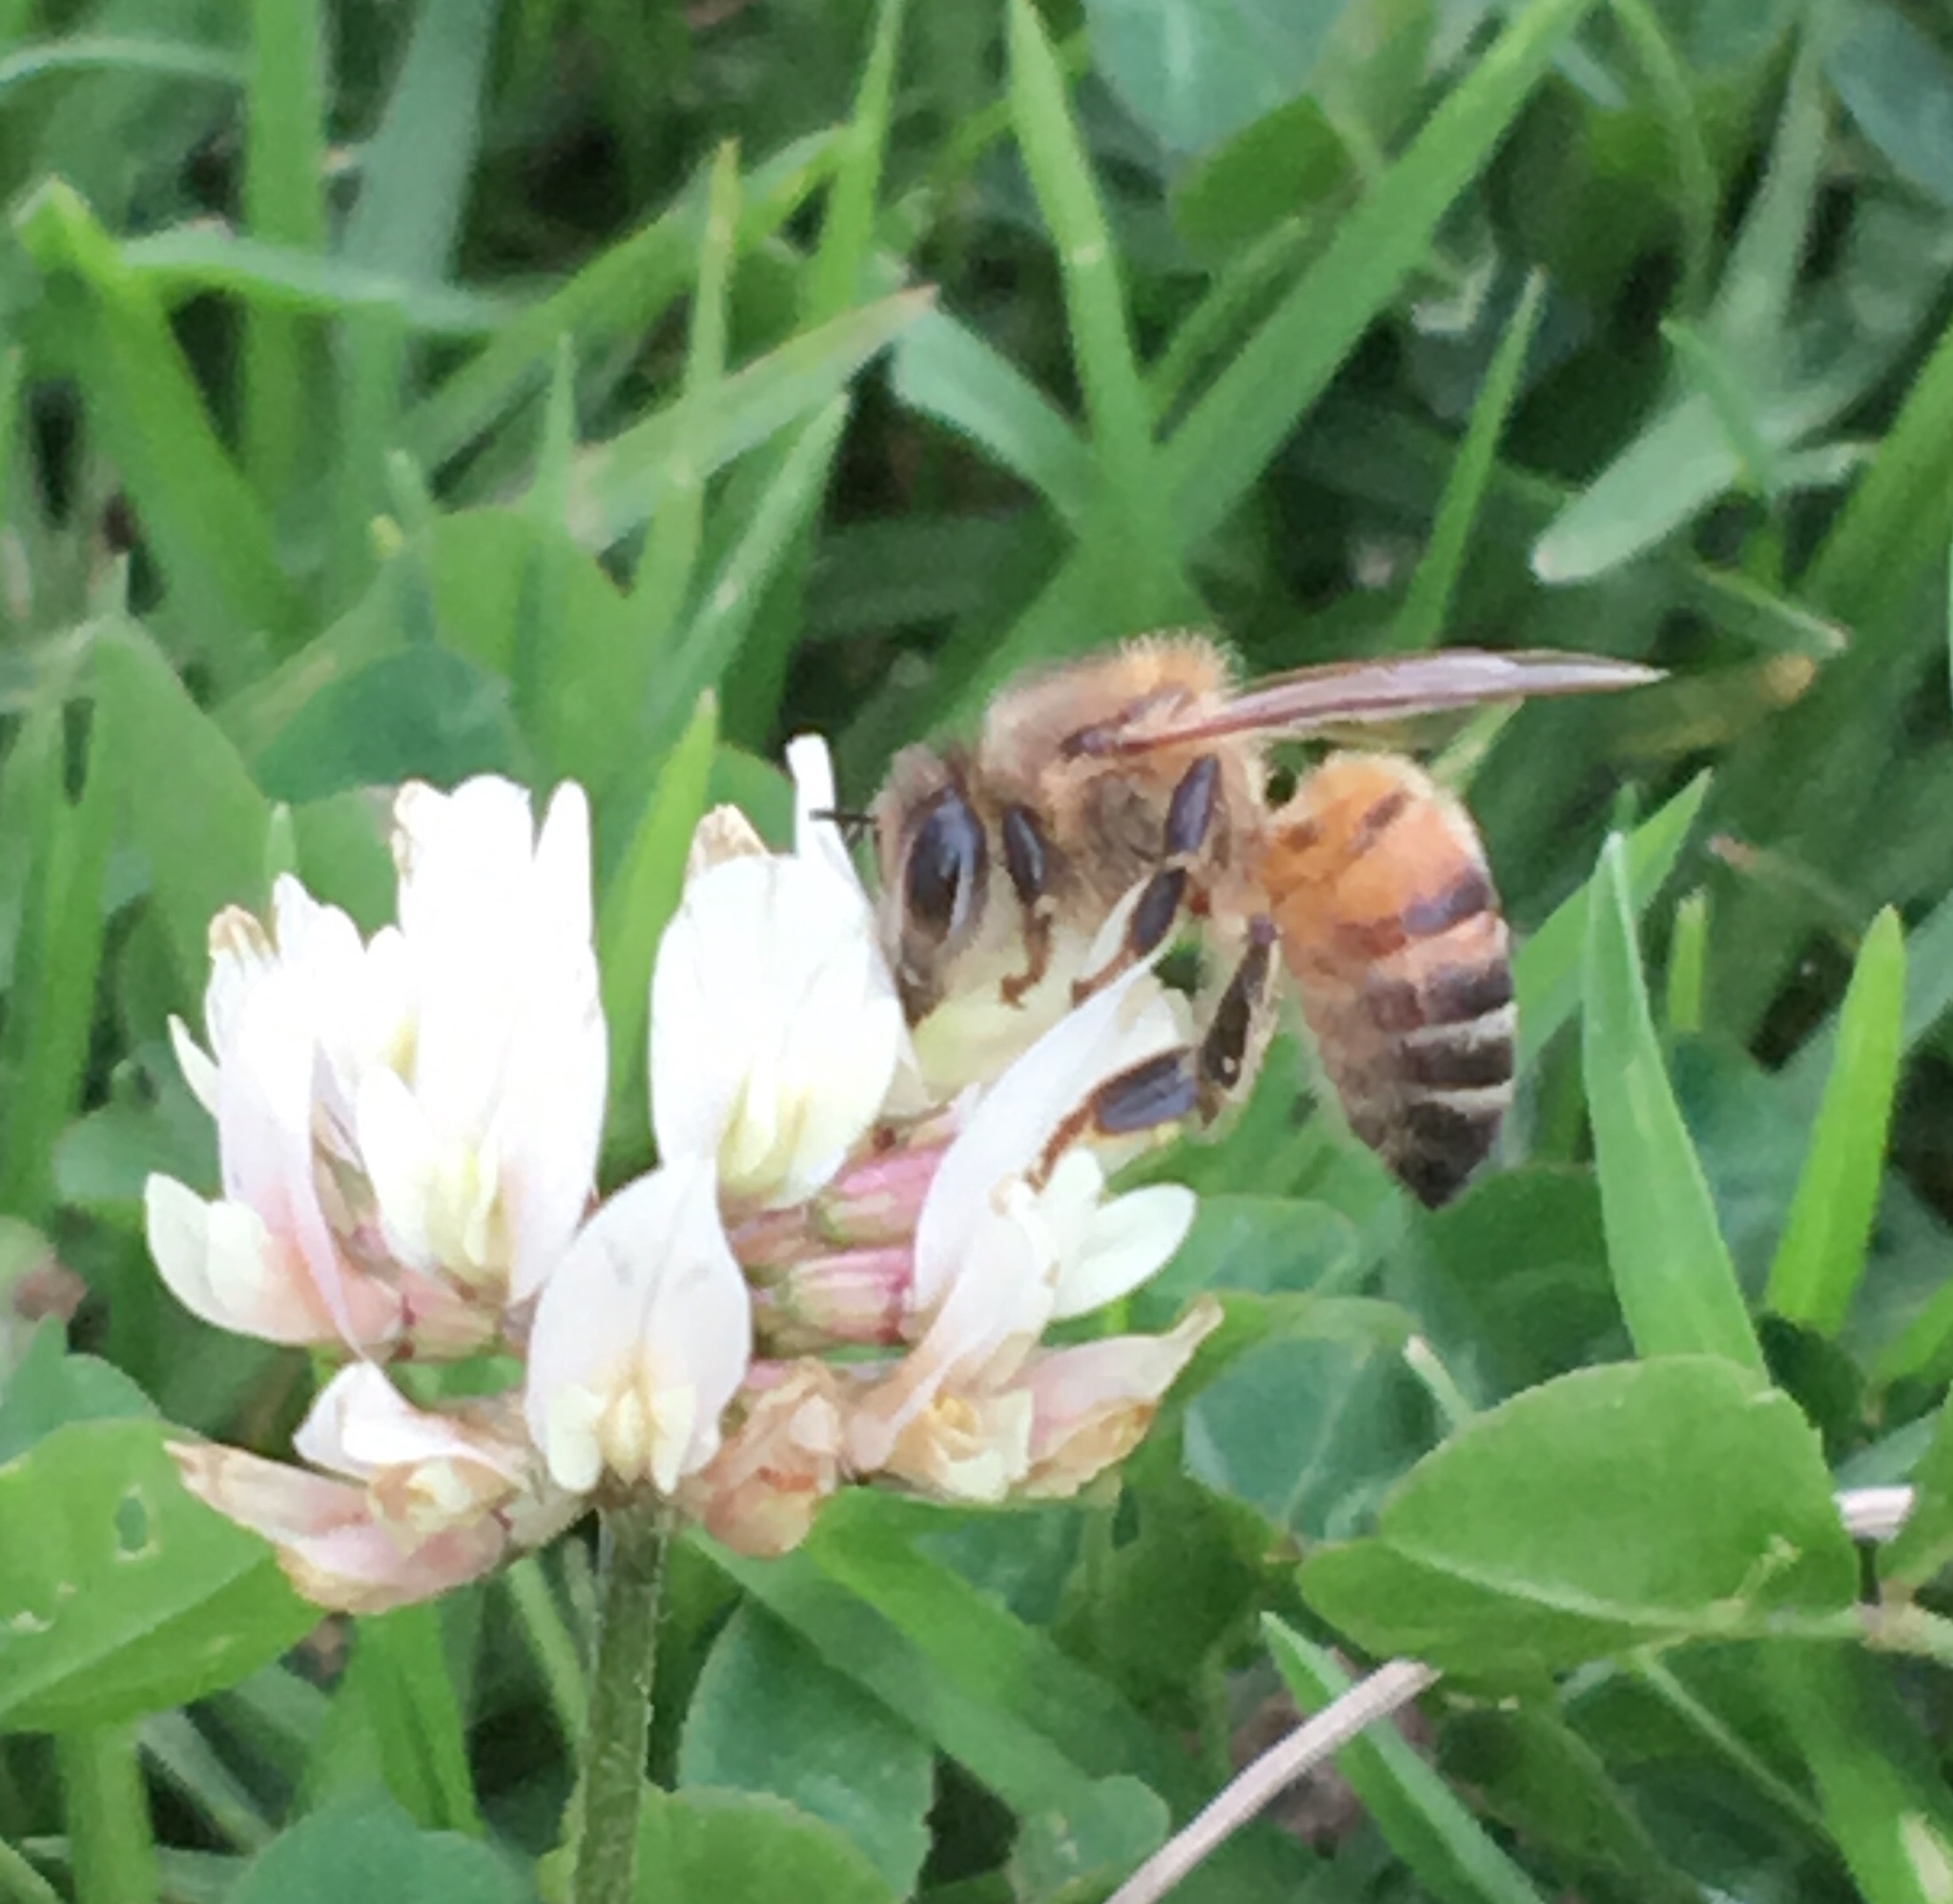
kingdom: Animalia
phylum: Arthropoda
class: Insecta
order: Hymenoptera
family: Apidae
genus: Apis
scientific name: Apis mellifera
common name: Honey bee
